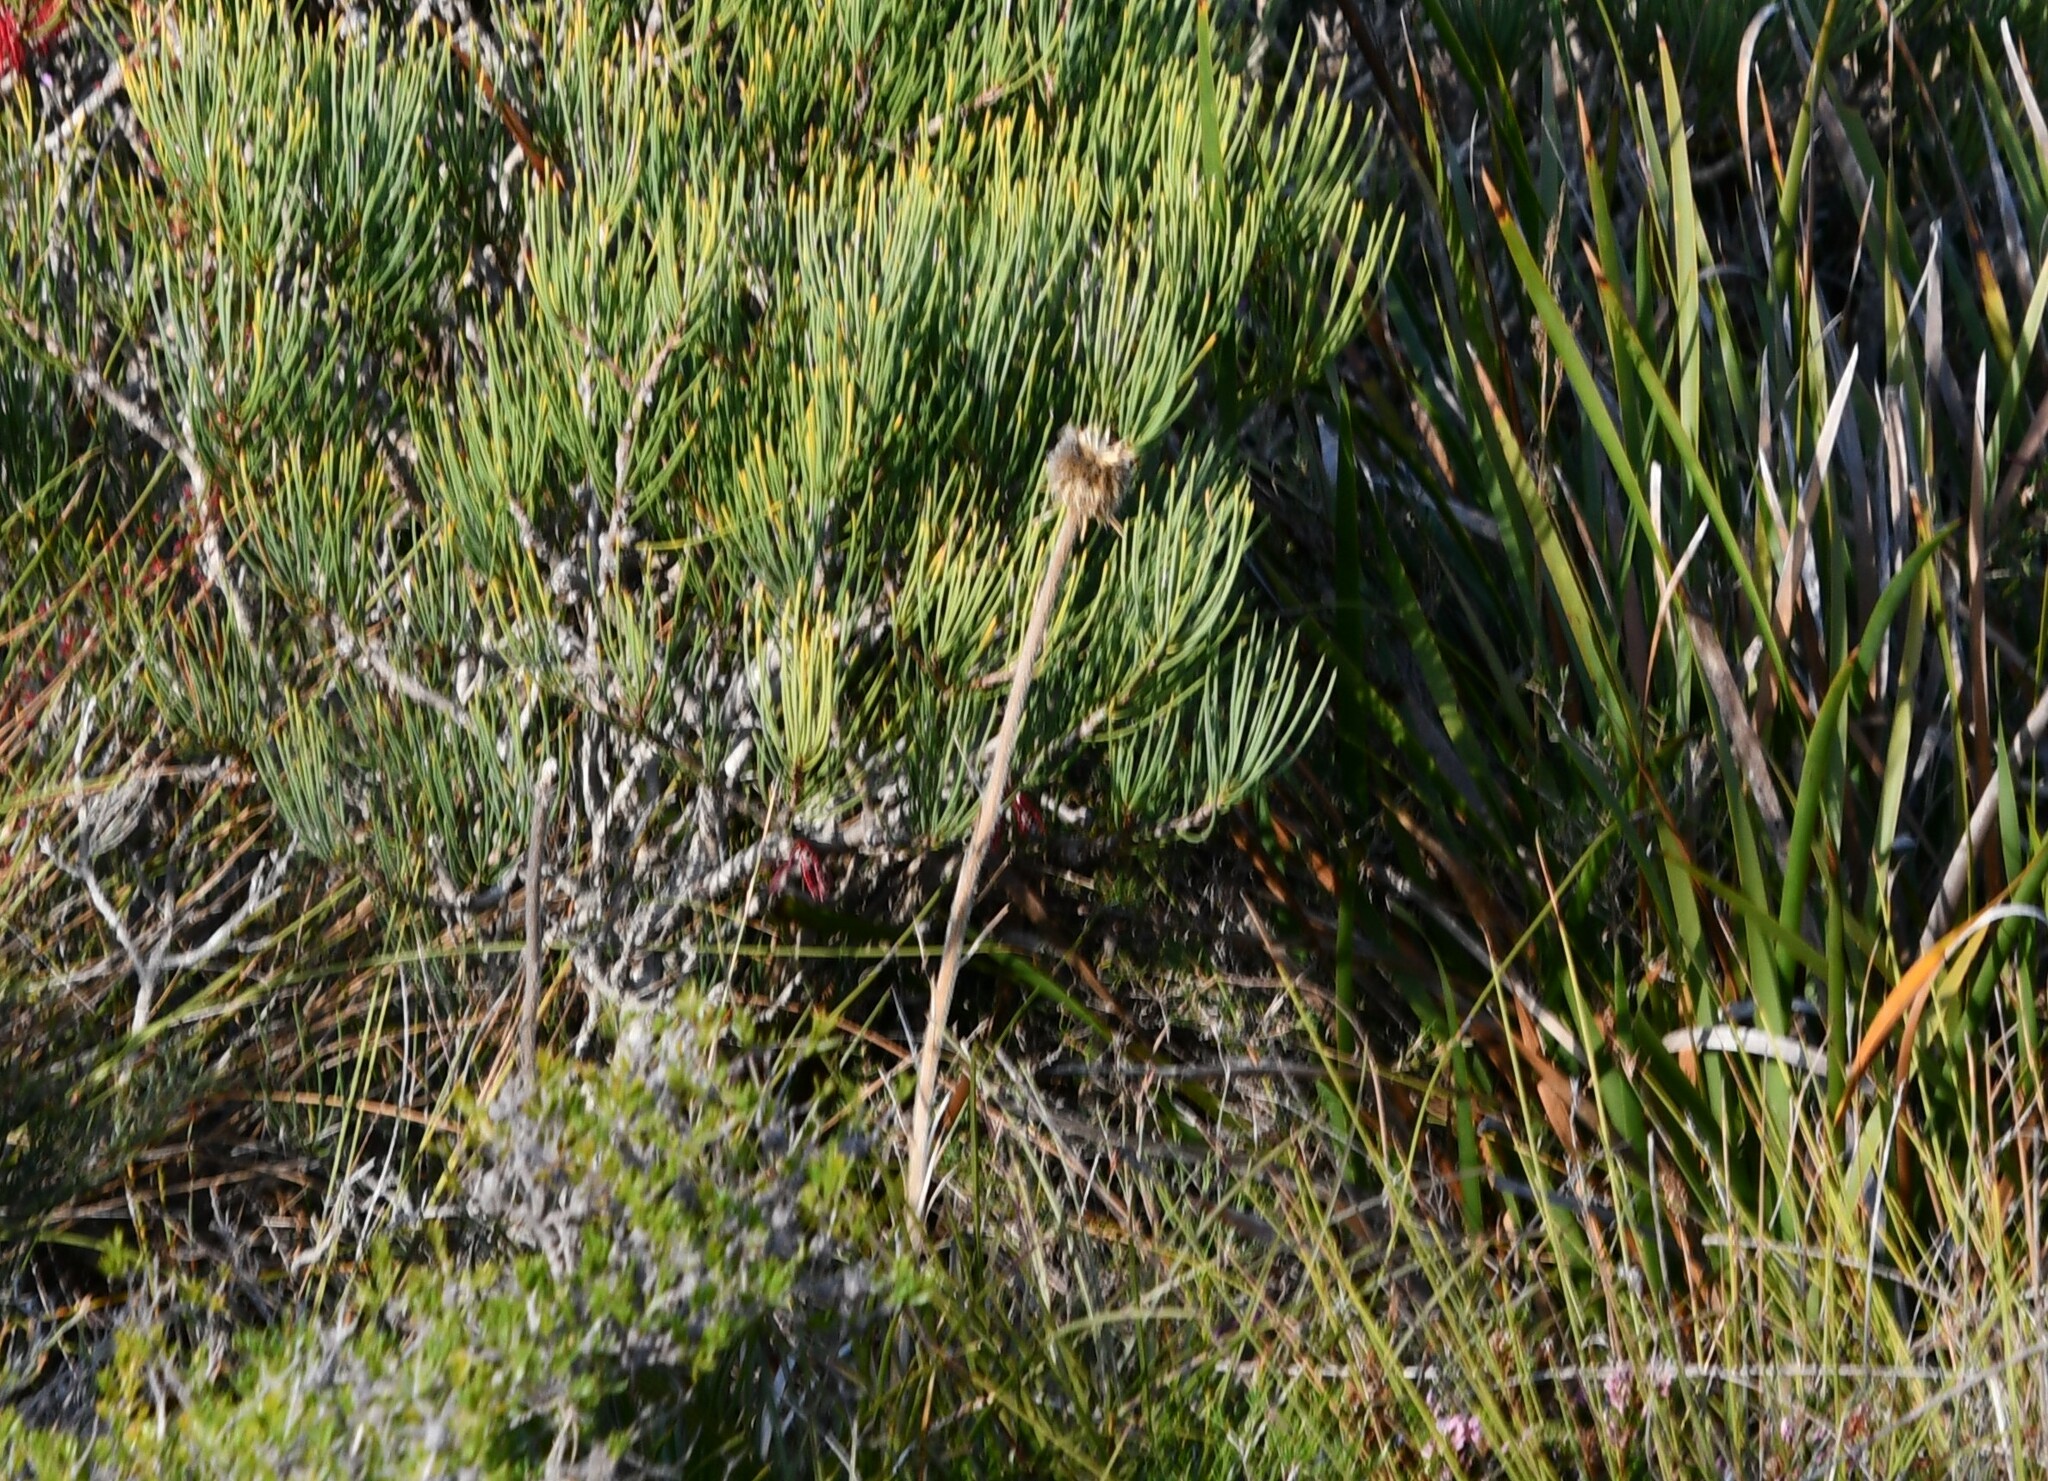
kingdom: Plantae
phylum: Tracheophyta
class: Liliopsida
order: Arecales
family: Dasypogonaceae
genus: Dasypogon
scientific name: Dasypogon bromeliifolius
